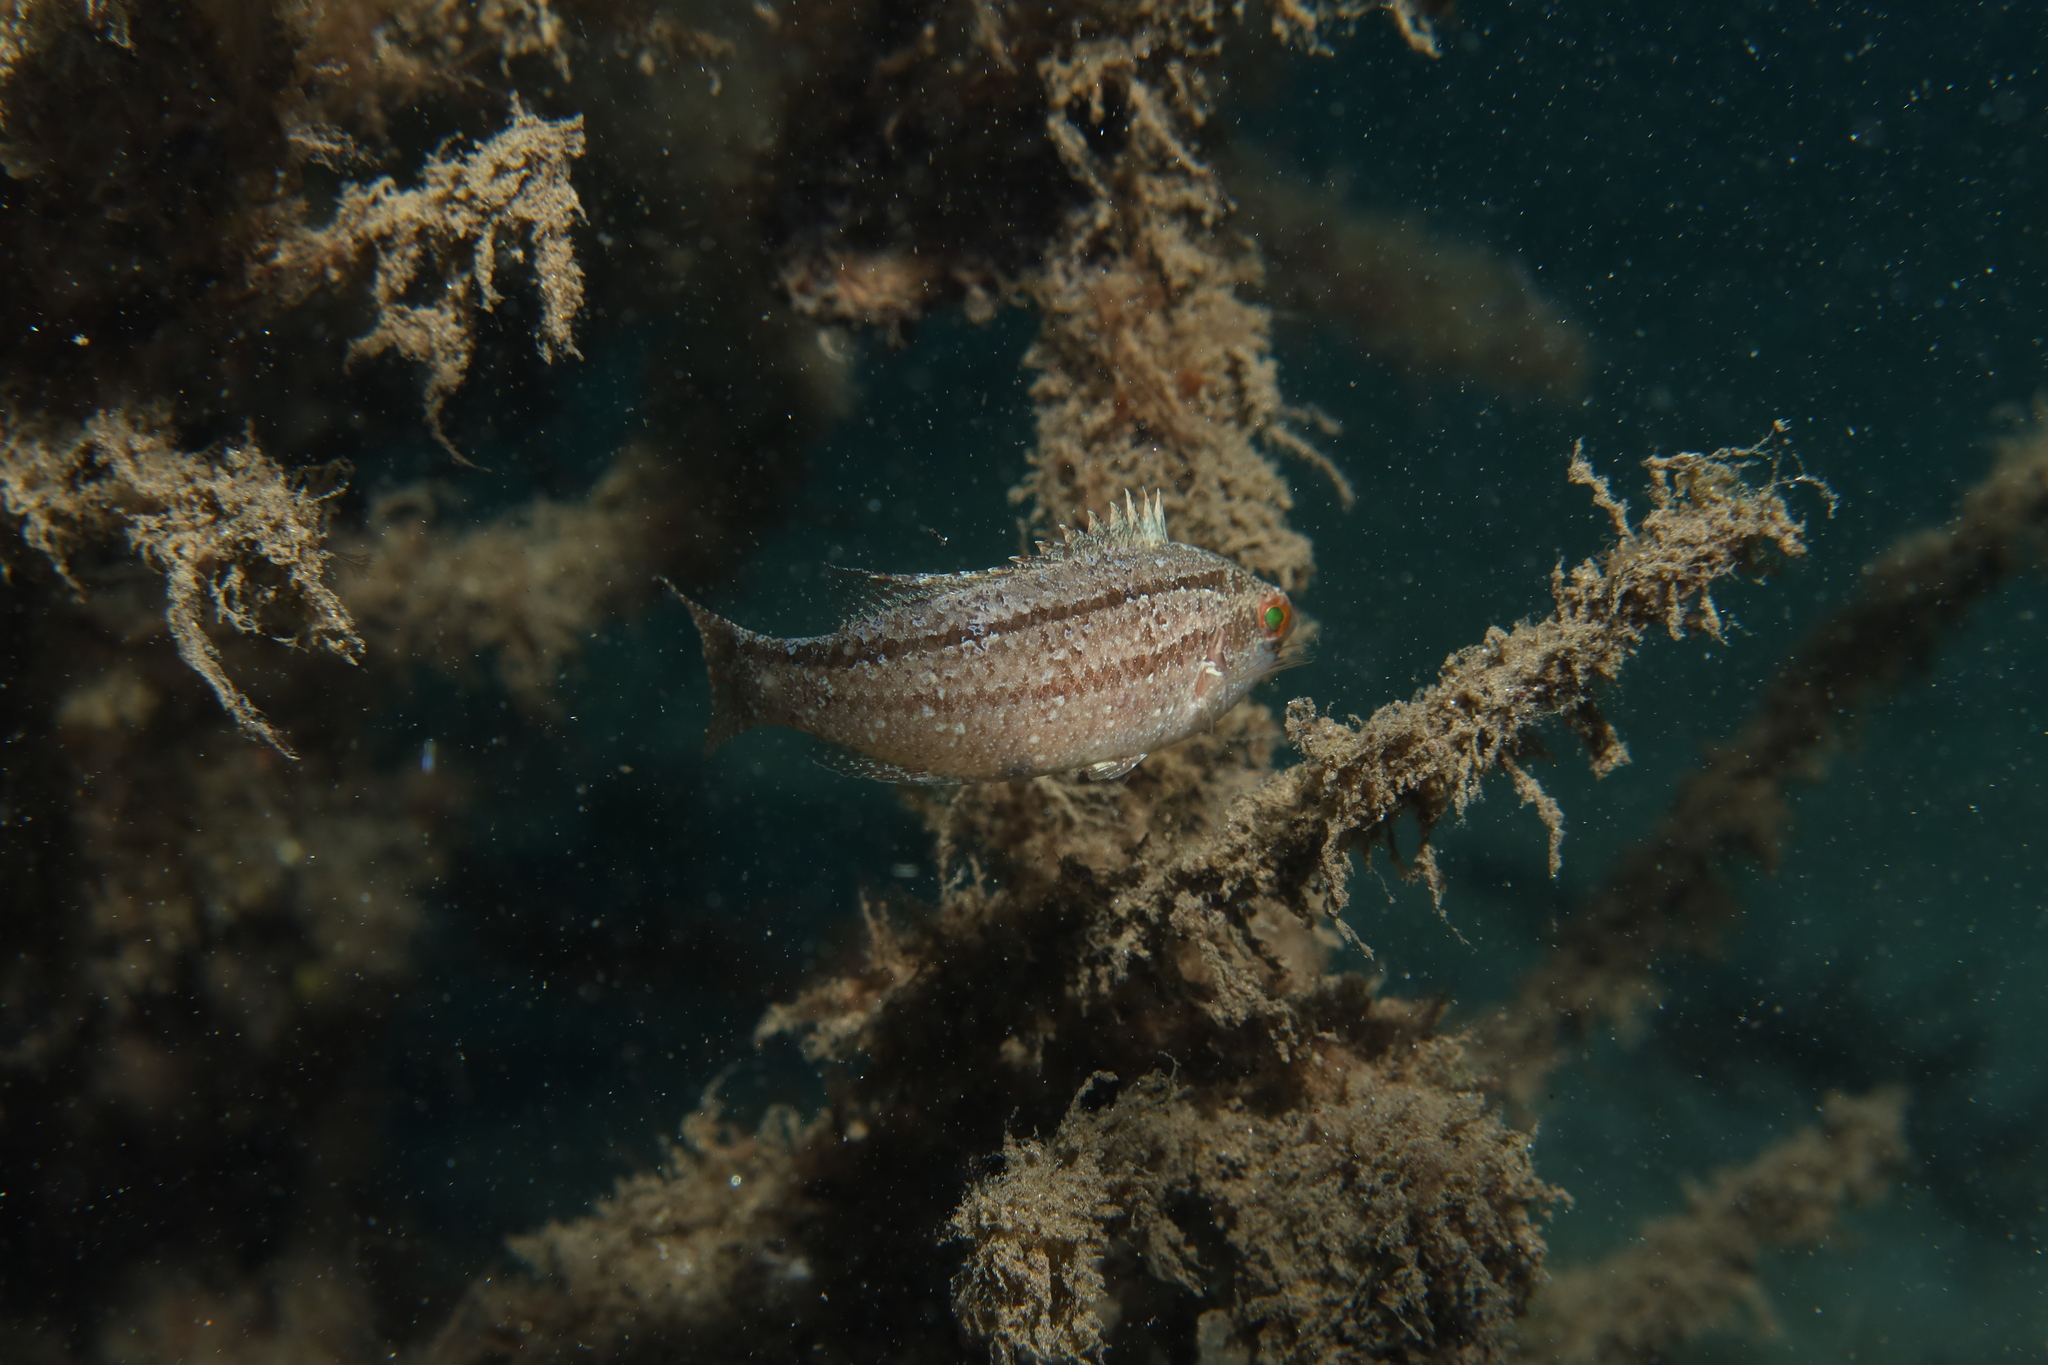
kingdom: Animalia
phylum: Chordata
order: Perciformes
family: Labridae
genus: Symphodus
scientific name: Symphodus cinereus
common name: Grey wrasse
